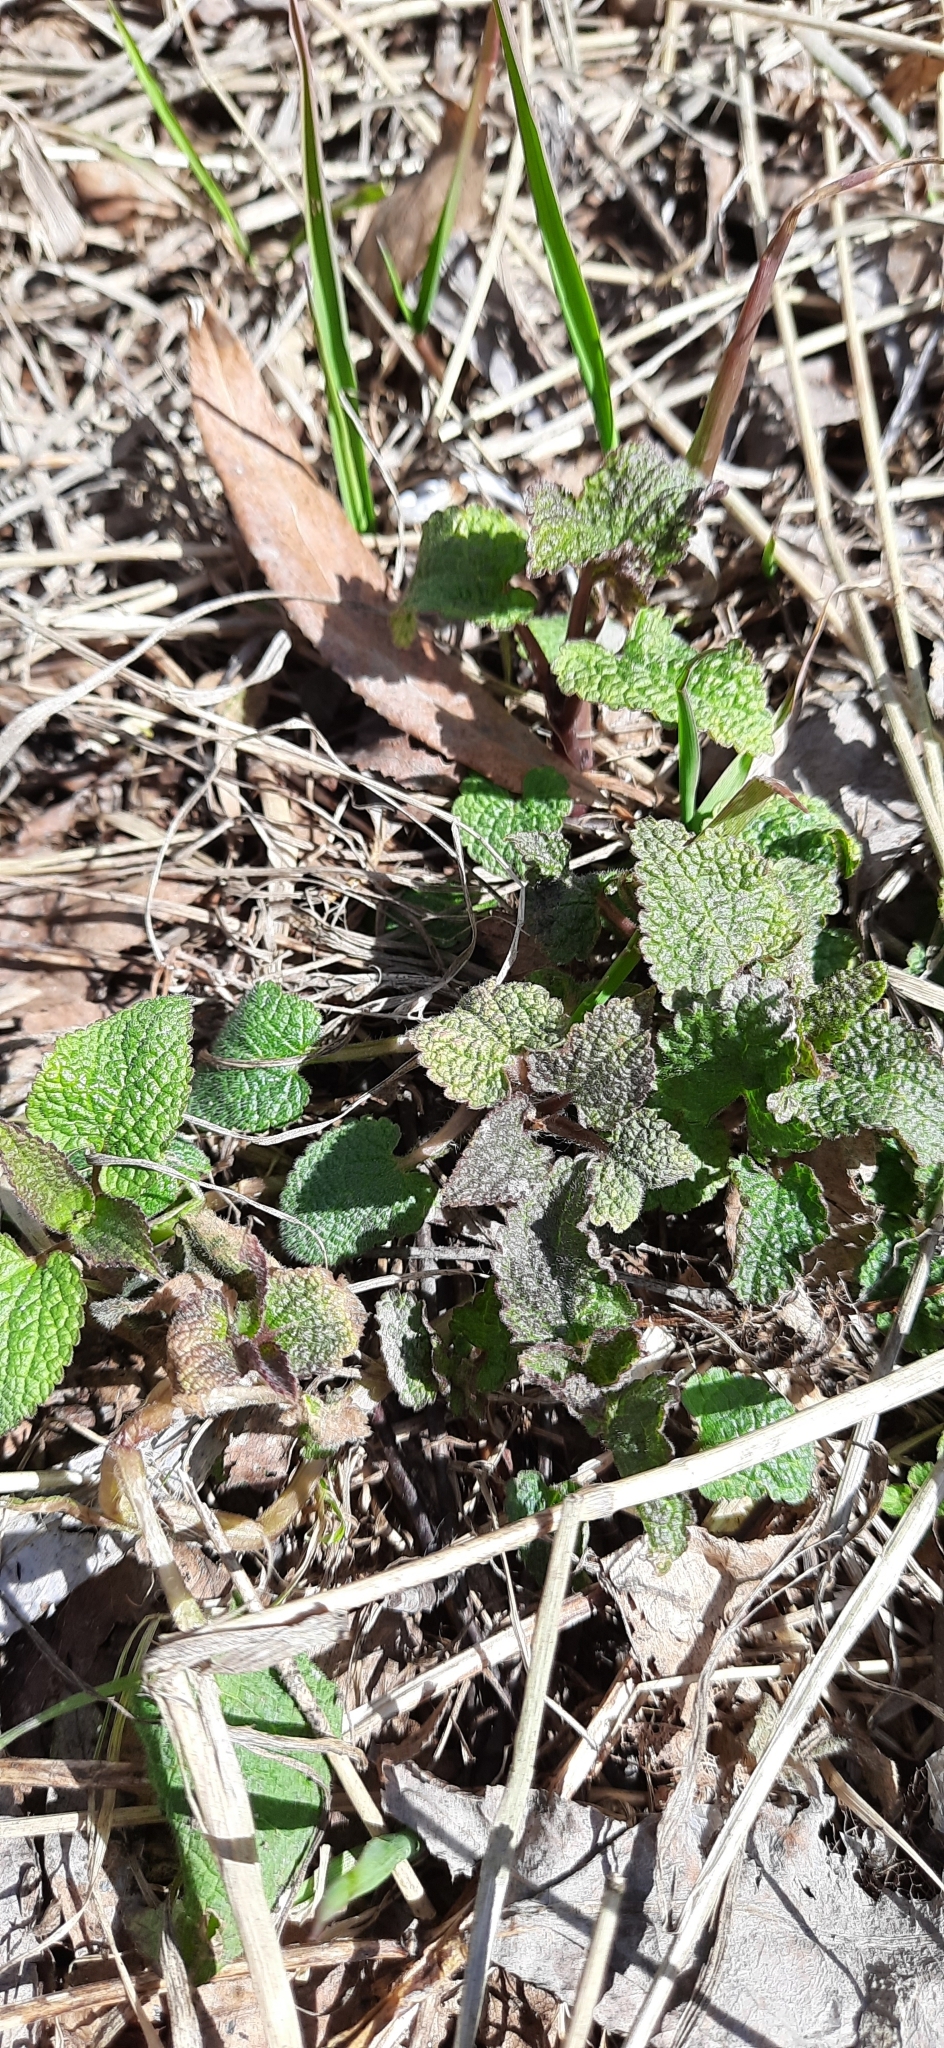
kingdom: Plantae
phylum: Tracheophyta
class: Magnoliopsida
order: Lamiales
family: Lamiaceae
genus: Lamium
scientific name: Lamium album
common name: White dead-nettle
